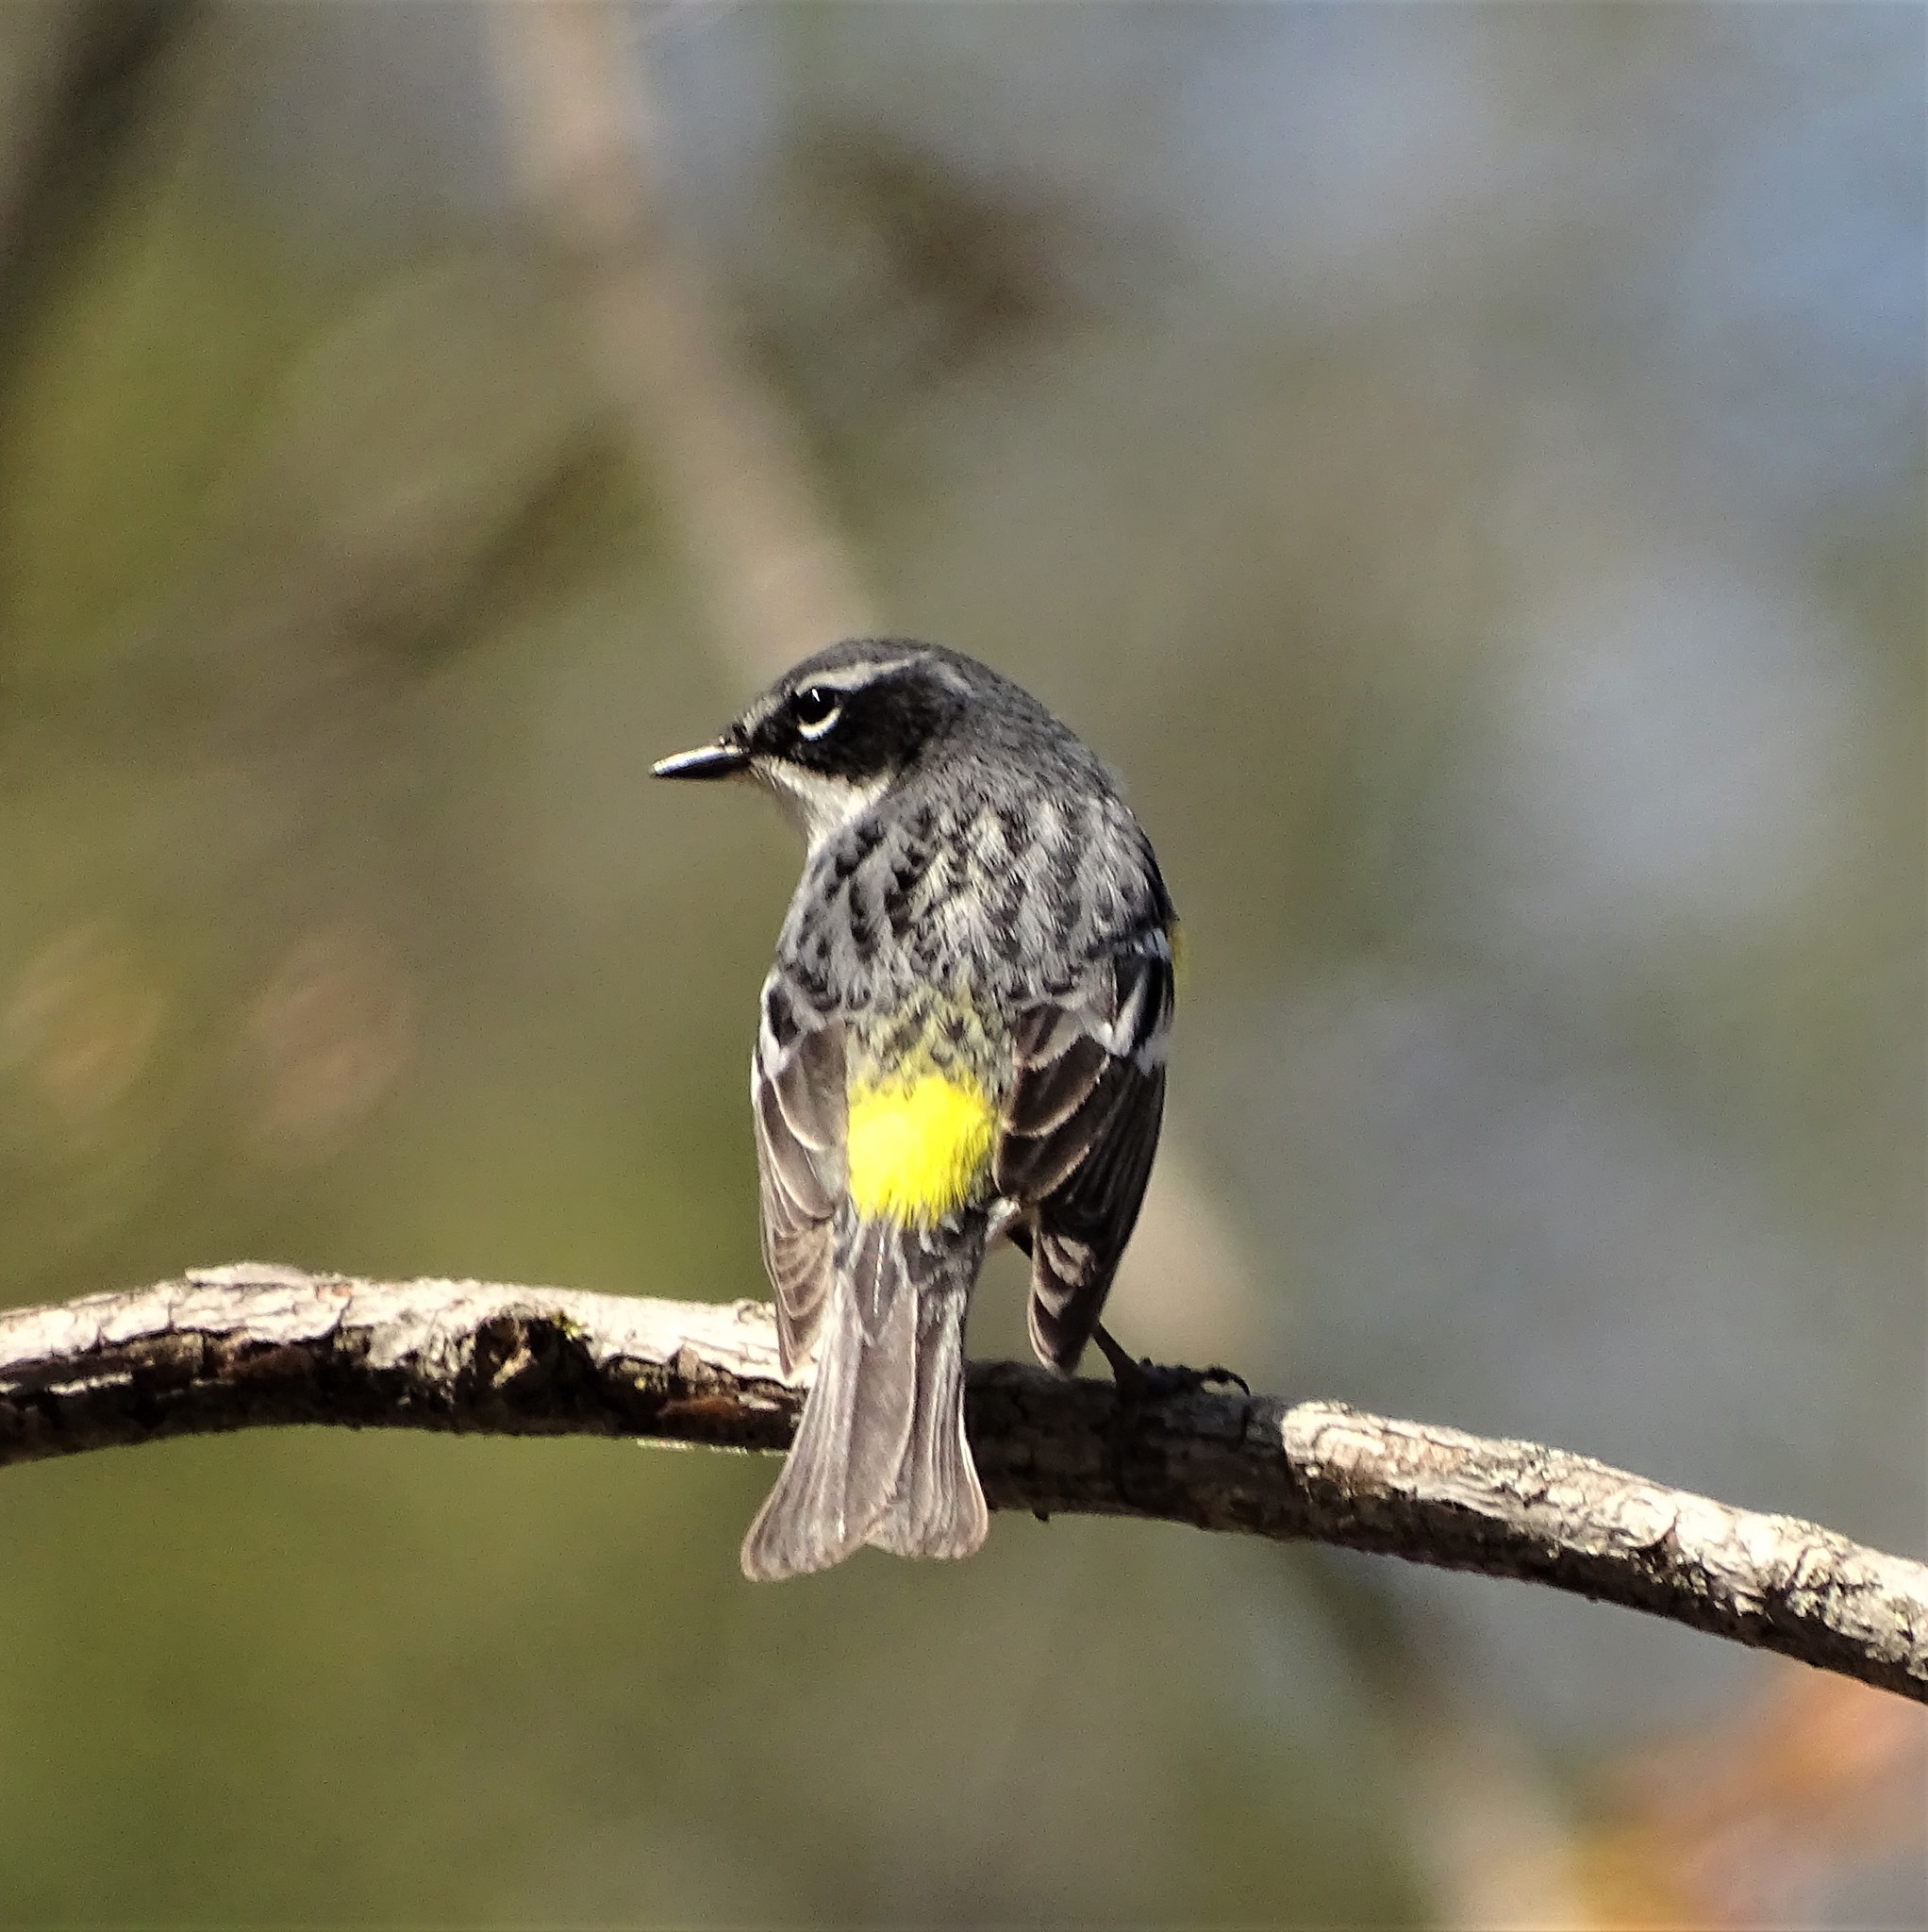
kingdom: Animalia
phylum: Chordata
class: Aves
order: Passeriformes
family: Parulidae
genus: Setophaga
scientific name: Setophaga coronata
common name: Myrtle warbler
